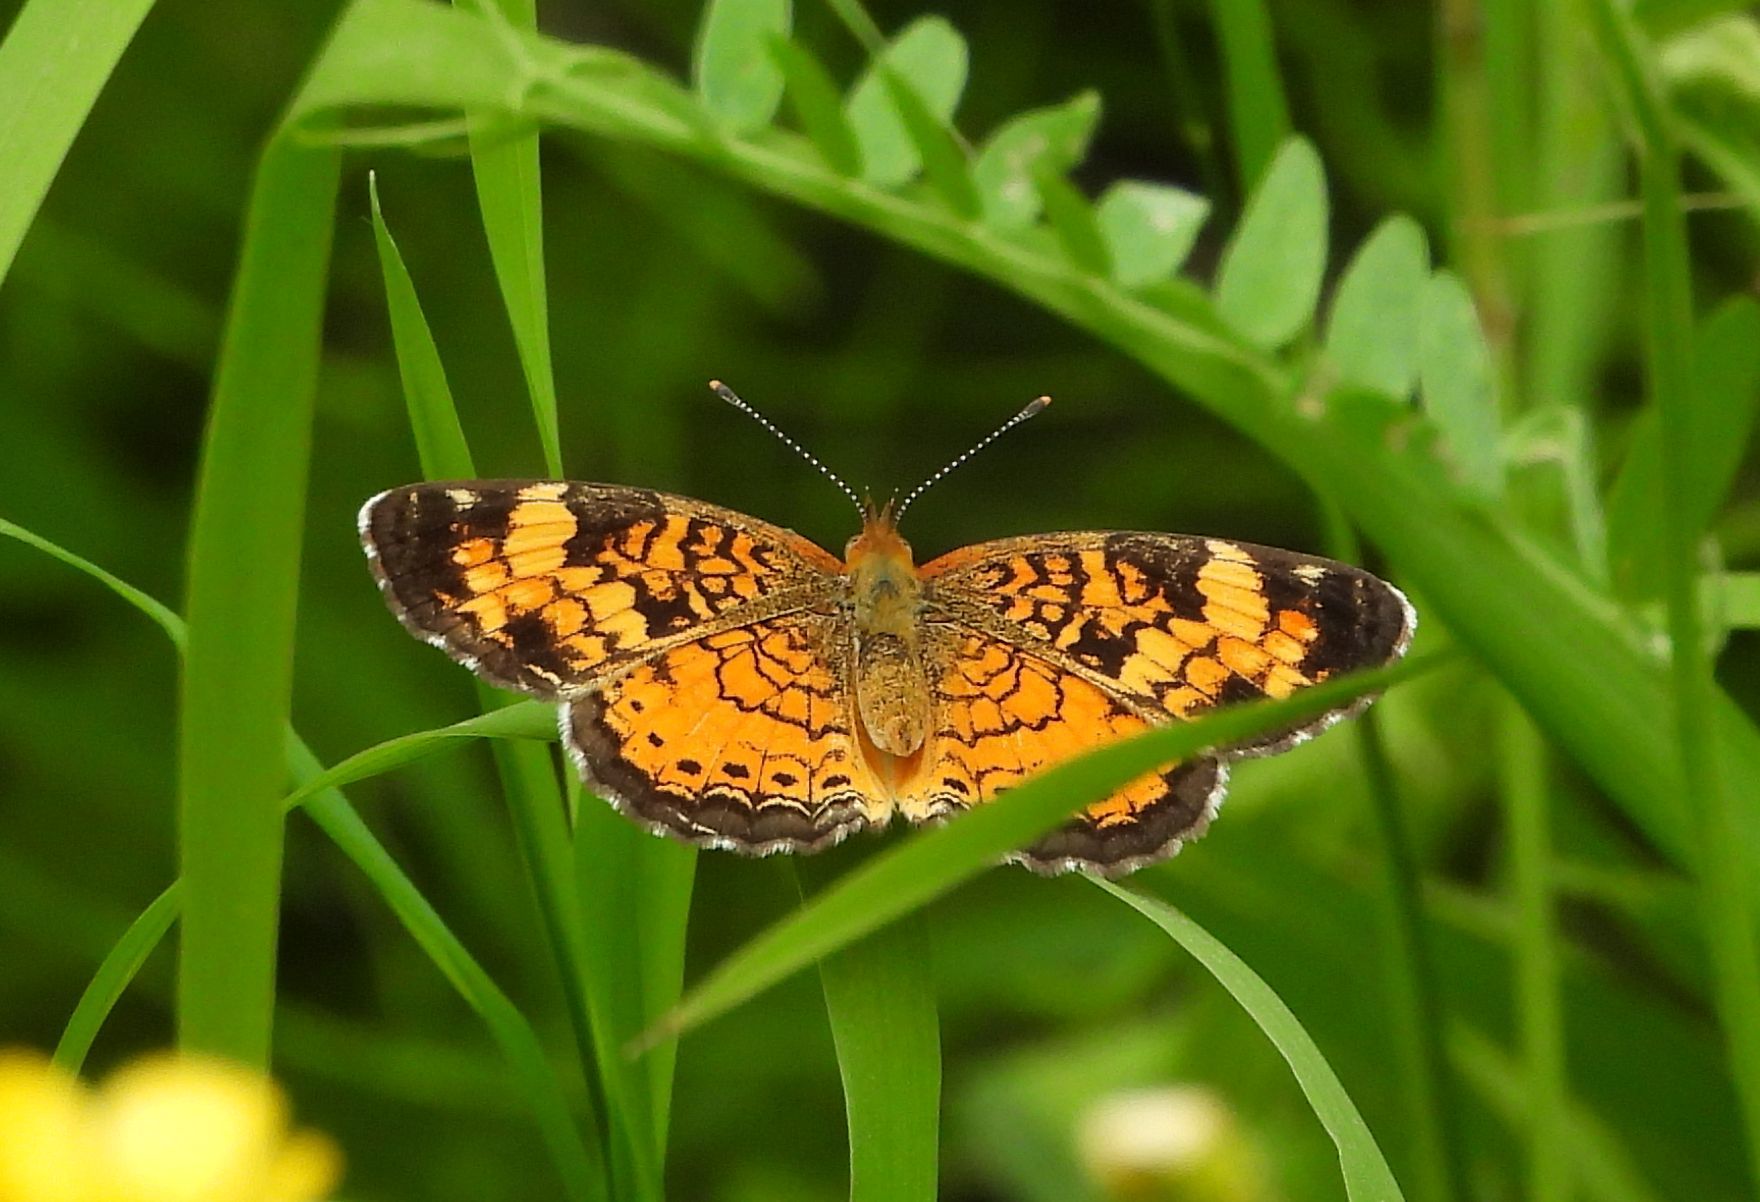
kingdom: Animalia
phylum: Arthropoda
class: Insecta
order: Lepidoptera
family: Nymphalidae
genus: Phyciodes
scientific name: Phyciodes tharos
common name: Pearl crescent
